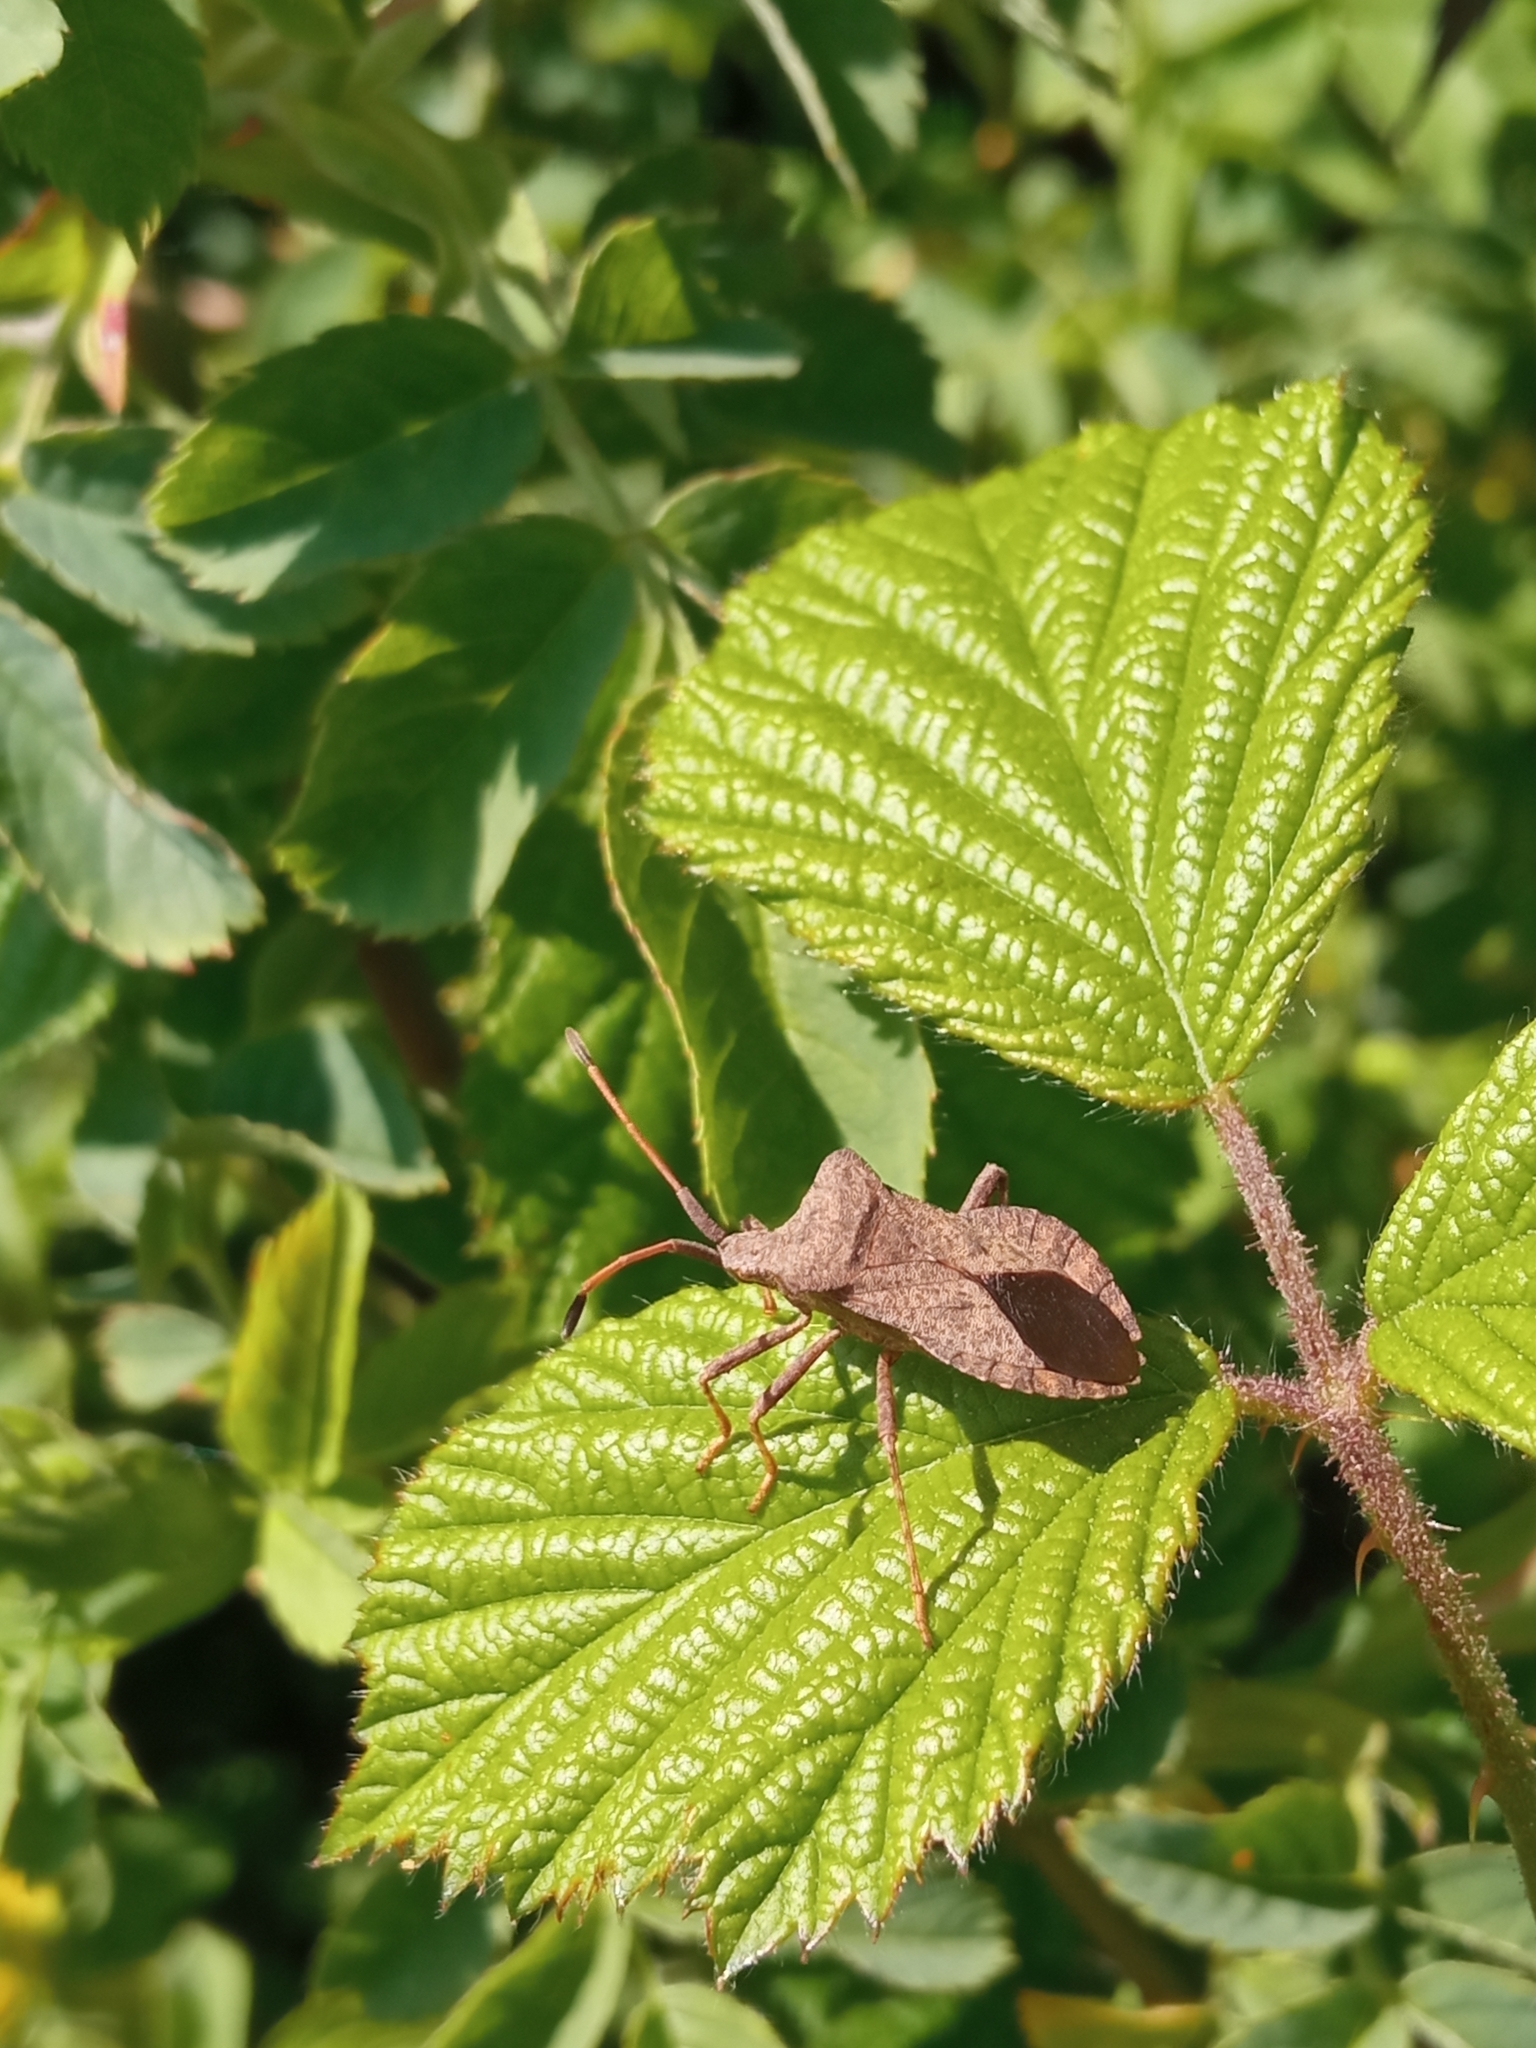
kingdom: Animalia
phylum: Arthropoda
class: Insecta
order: Hemiptera
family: Coreidae
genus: Coreus
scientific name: Coreus marginatus
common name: Dock bug
